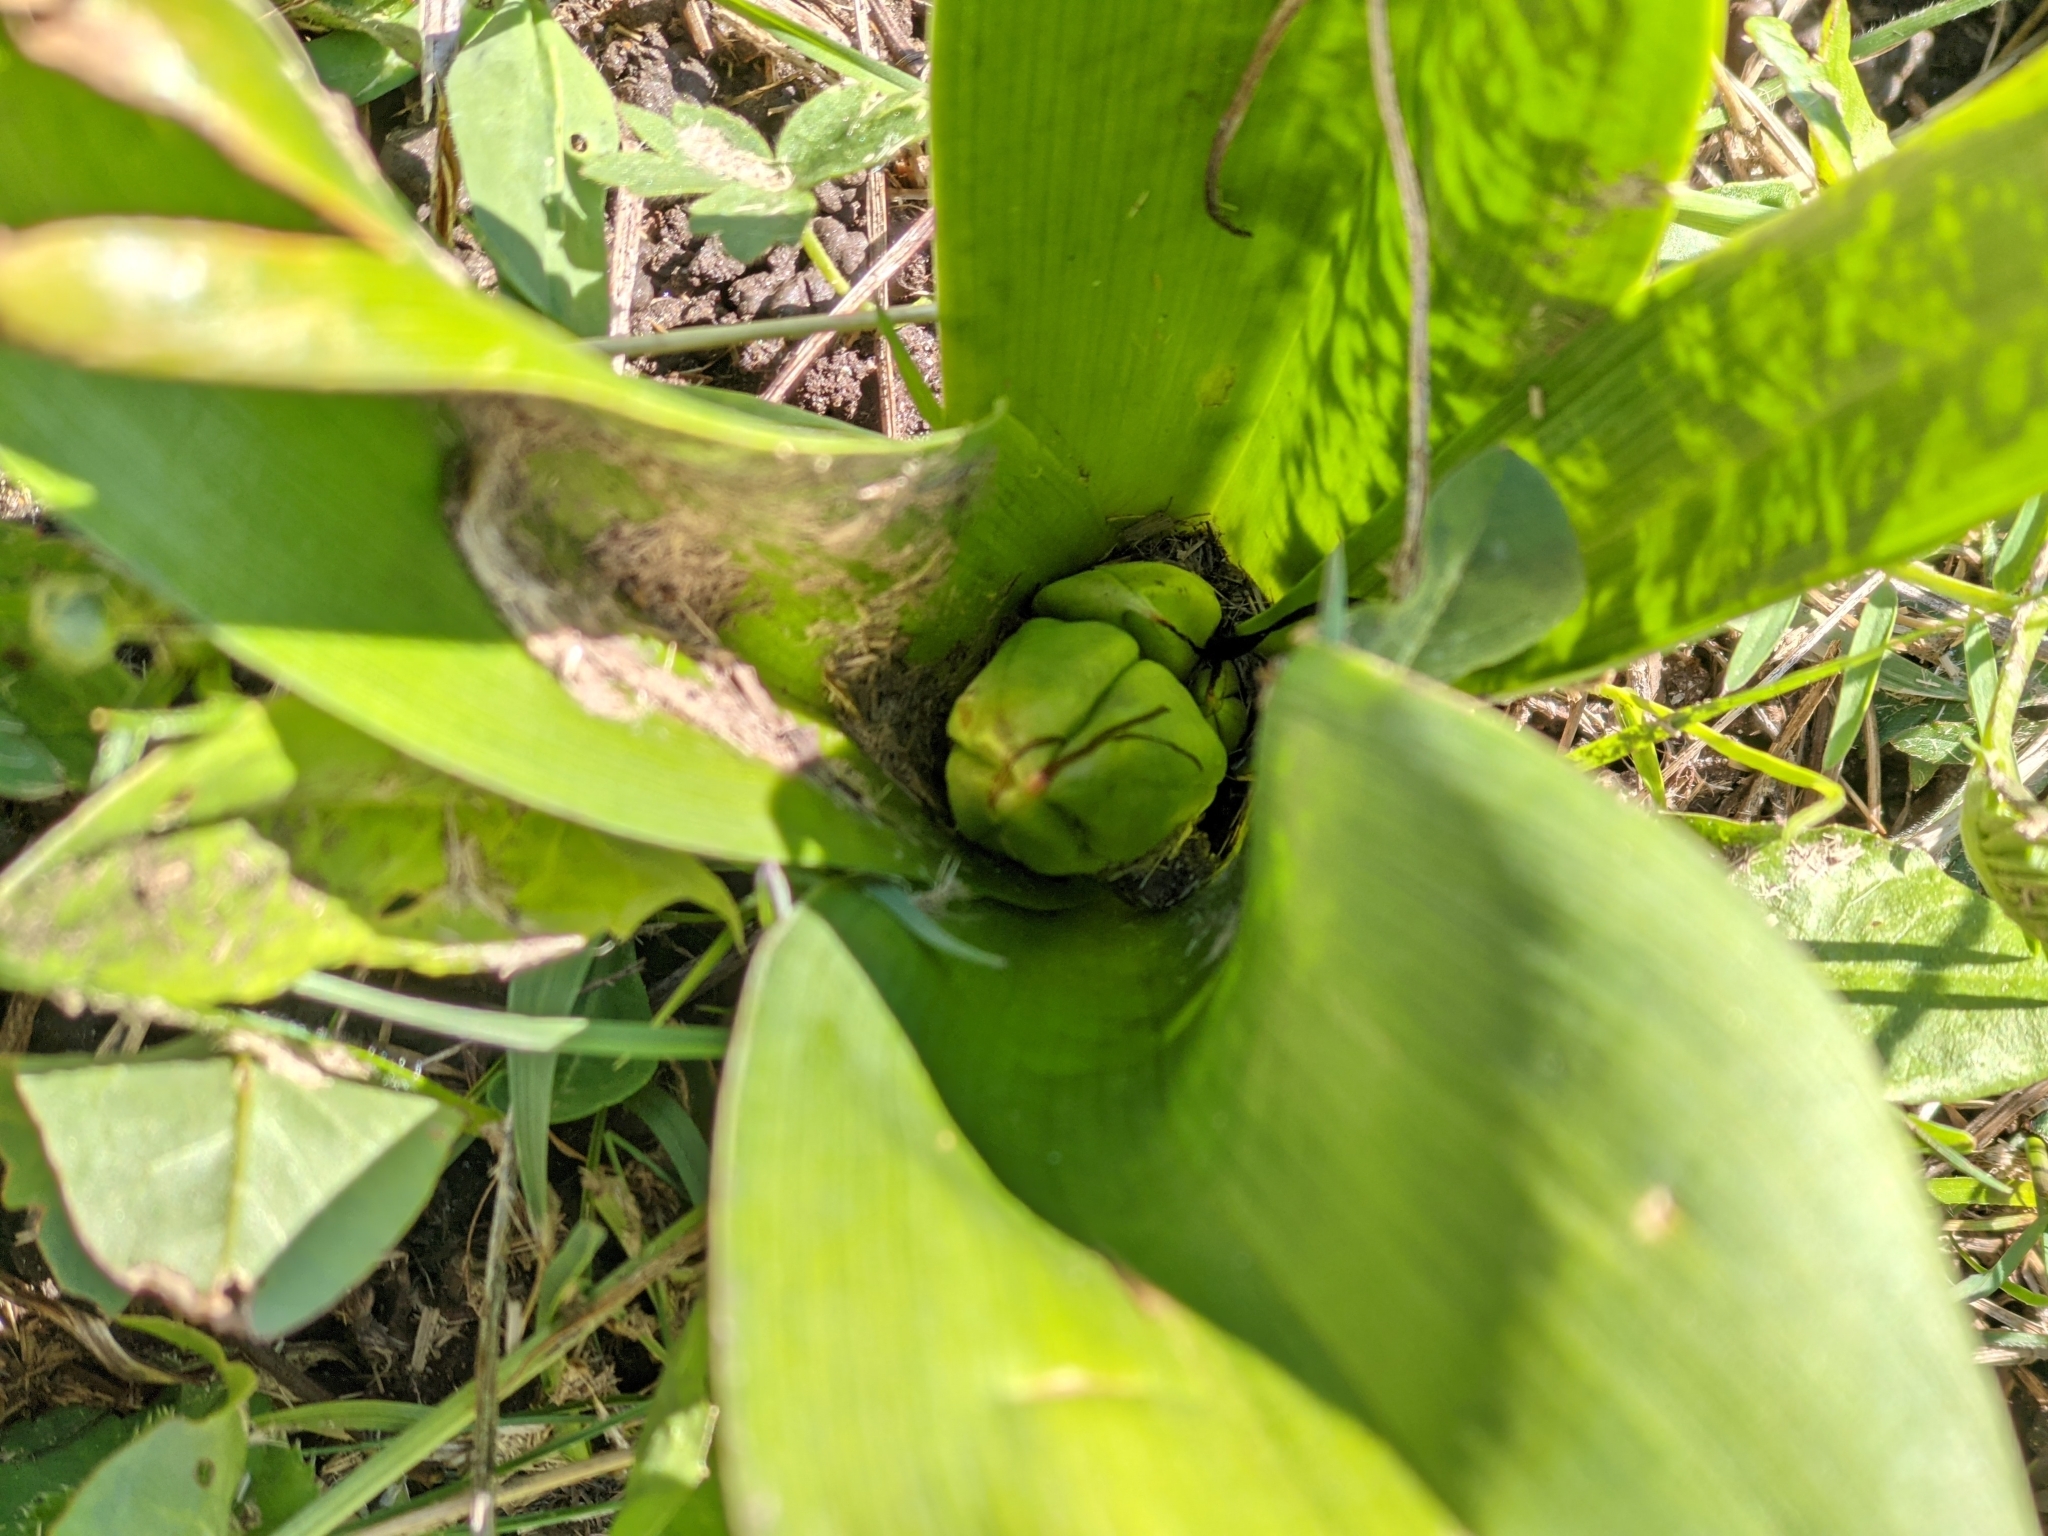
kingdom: Plantae
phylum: Tracheophyta
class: Liliopsida
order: Liliales
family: Colchicaceae
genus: Colchicum
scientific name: Colchicum autumnale
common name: Autumn crocus
